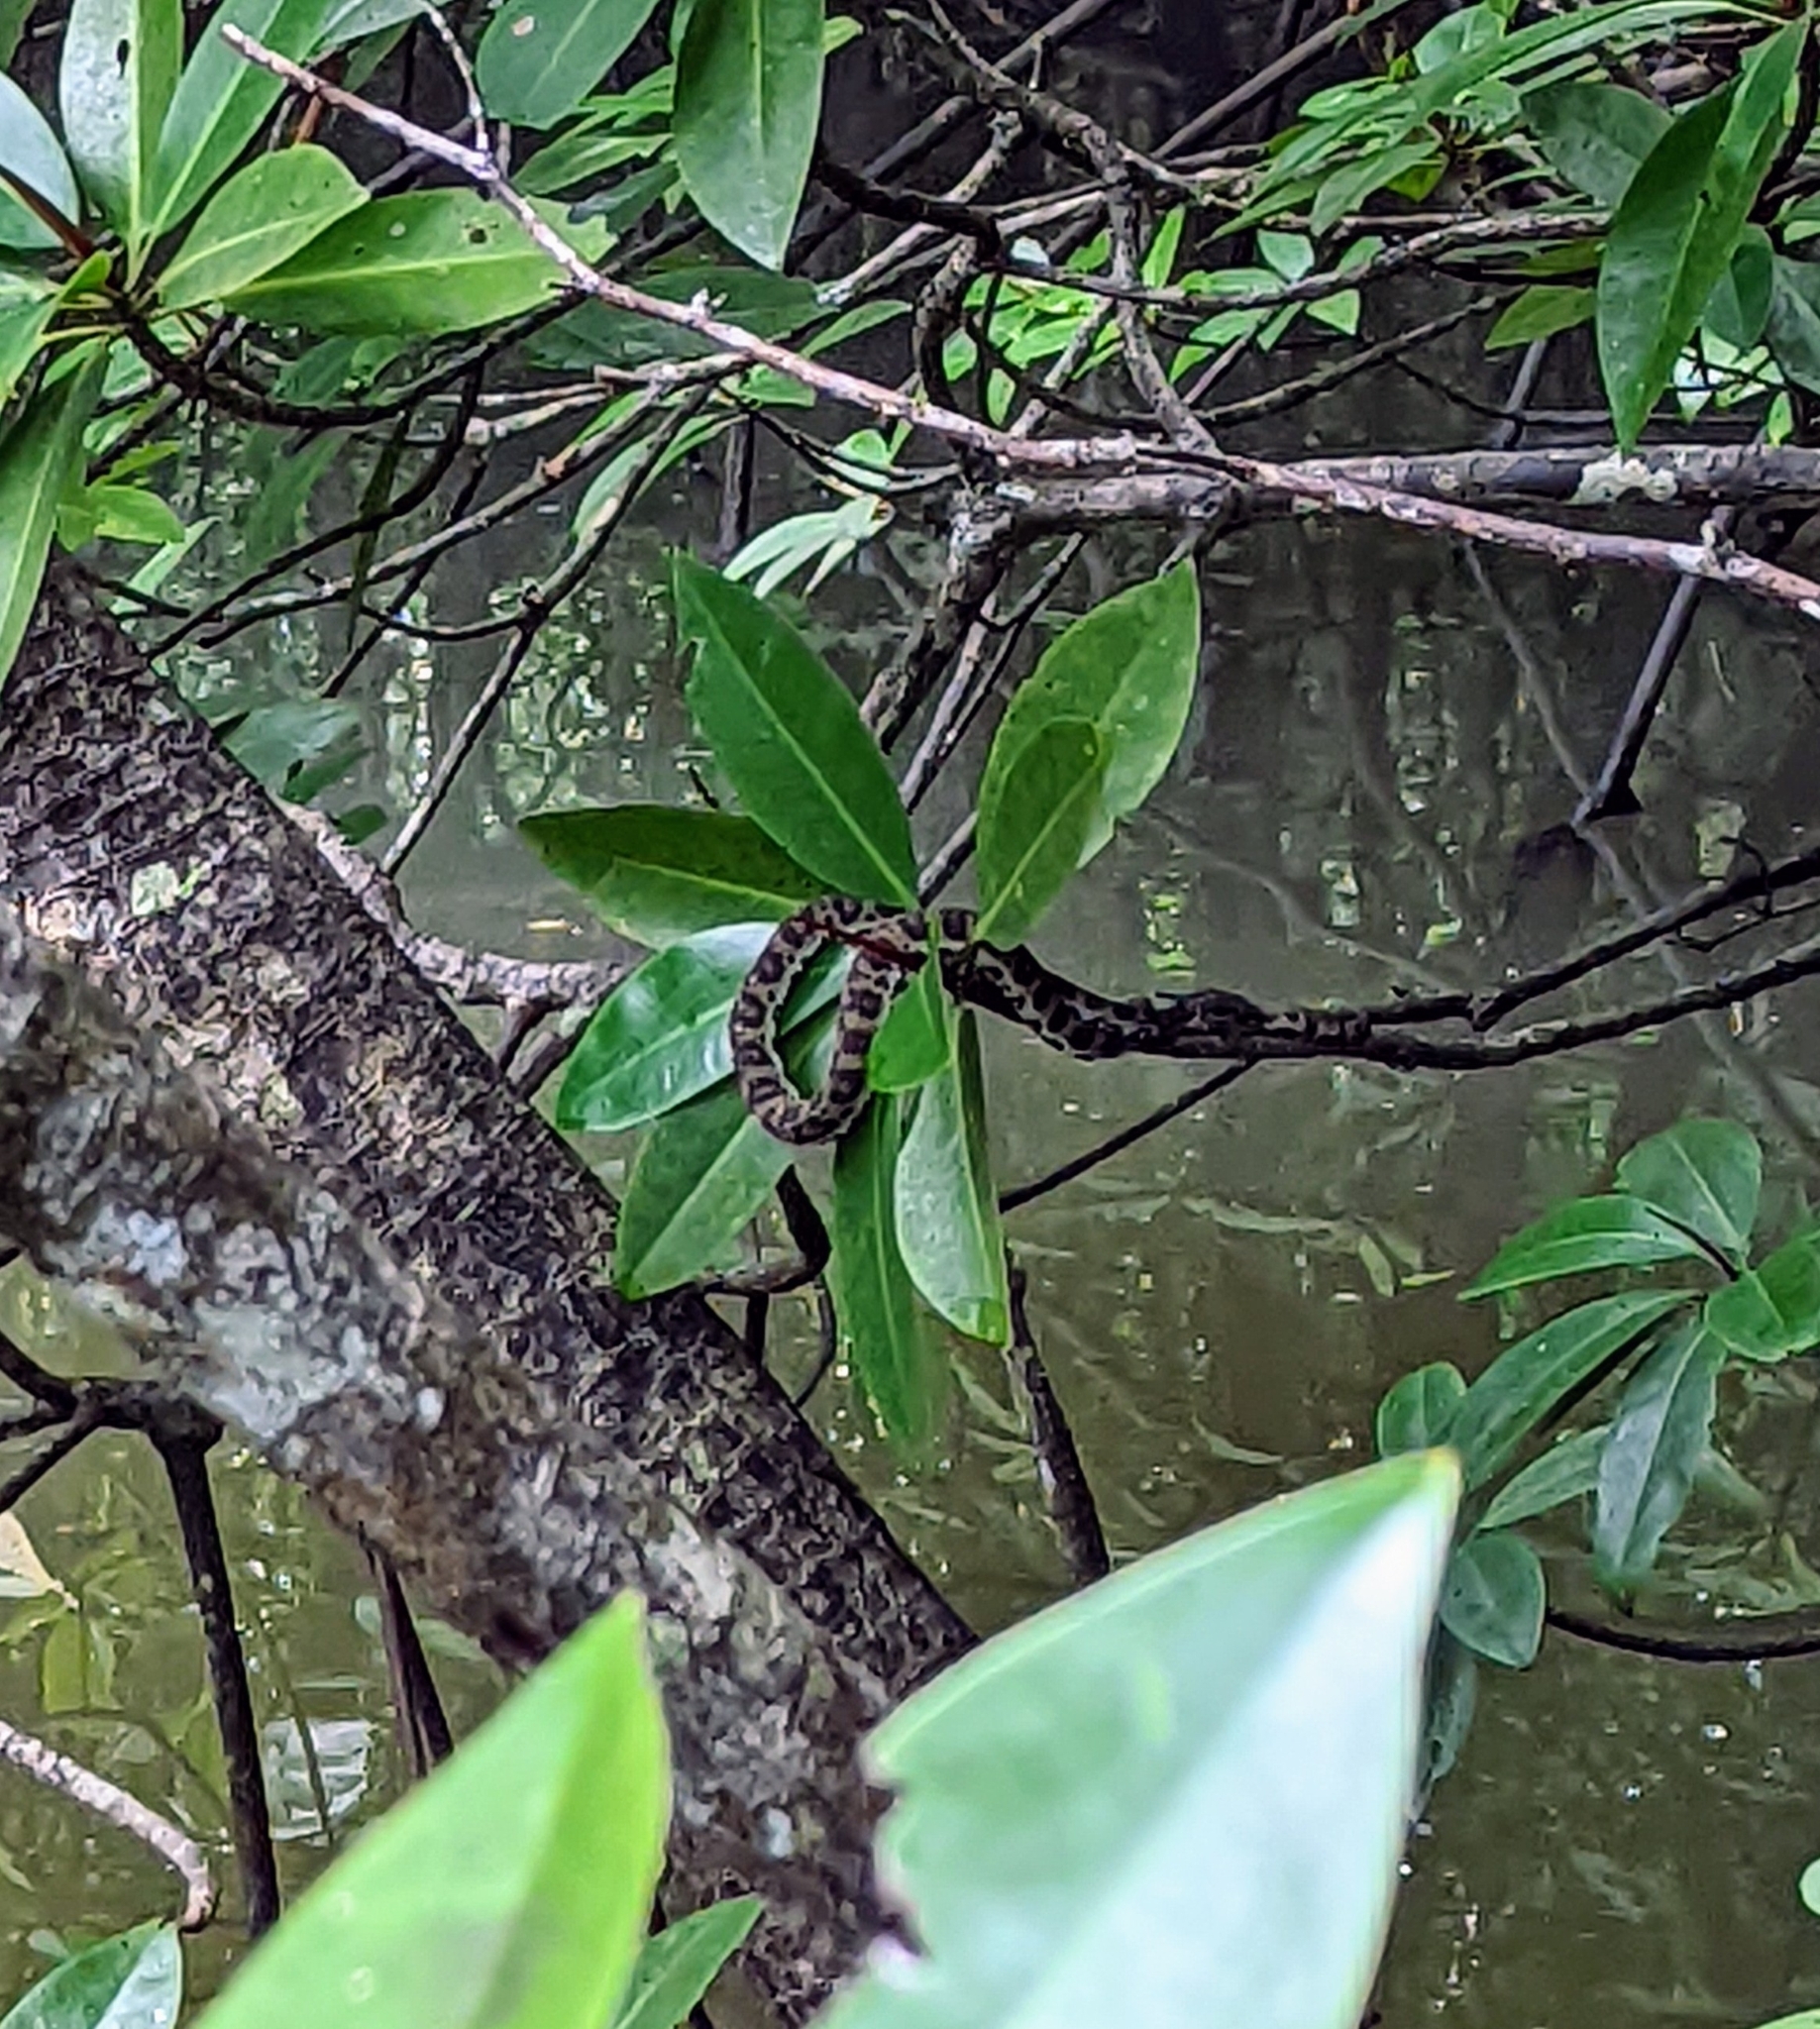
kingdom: Animalia
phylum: Chordata
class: Squamata
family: Viperidae
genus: Trimeresurus
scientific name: Trimeresurus purpureomaculatus
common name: Shore pit viper
